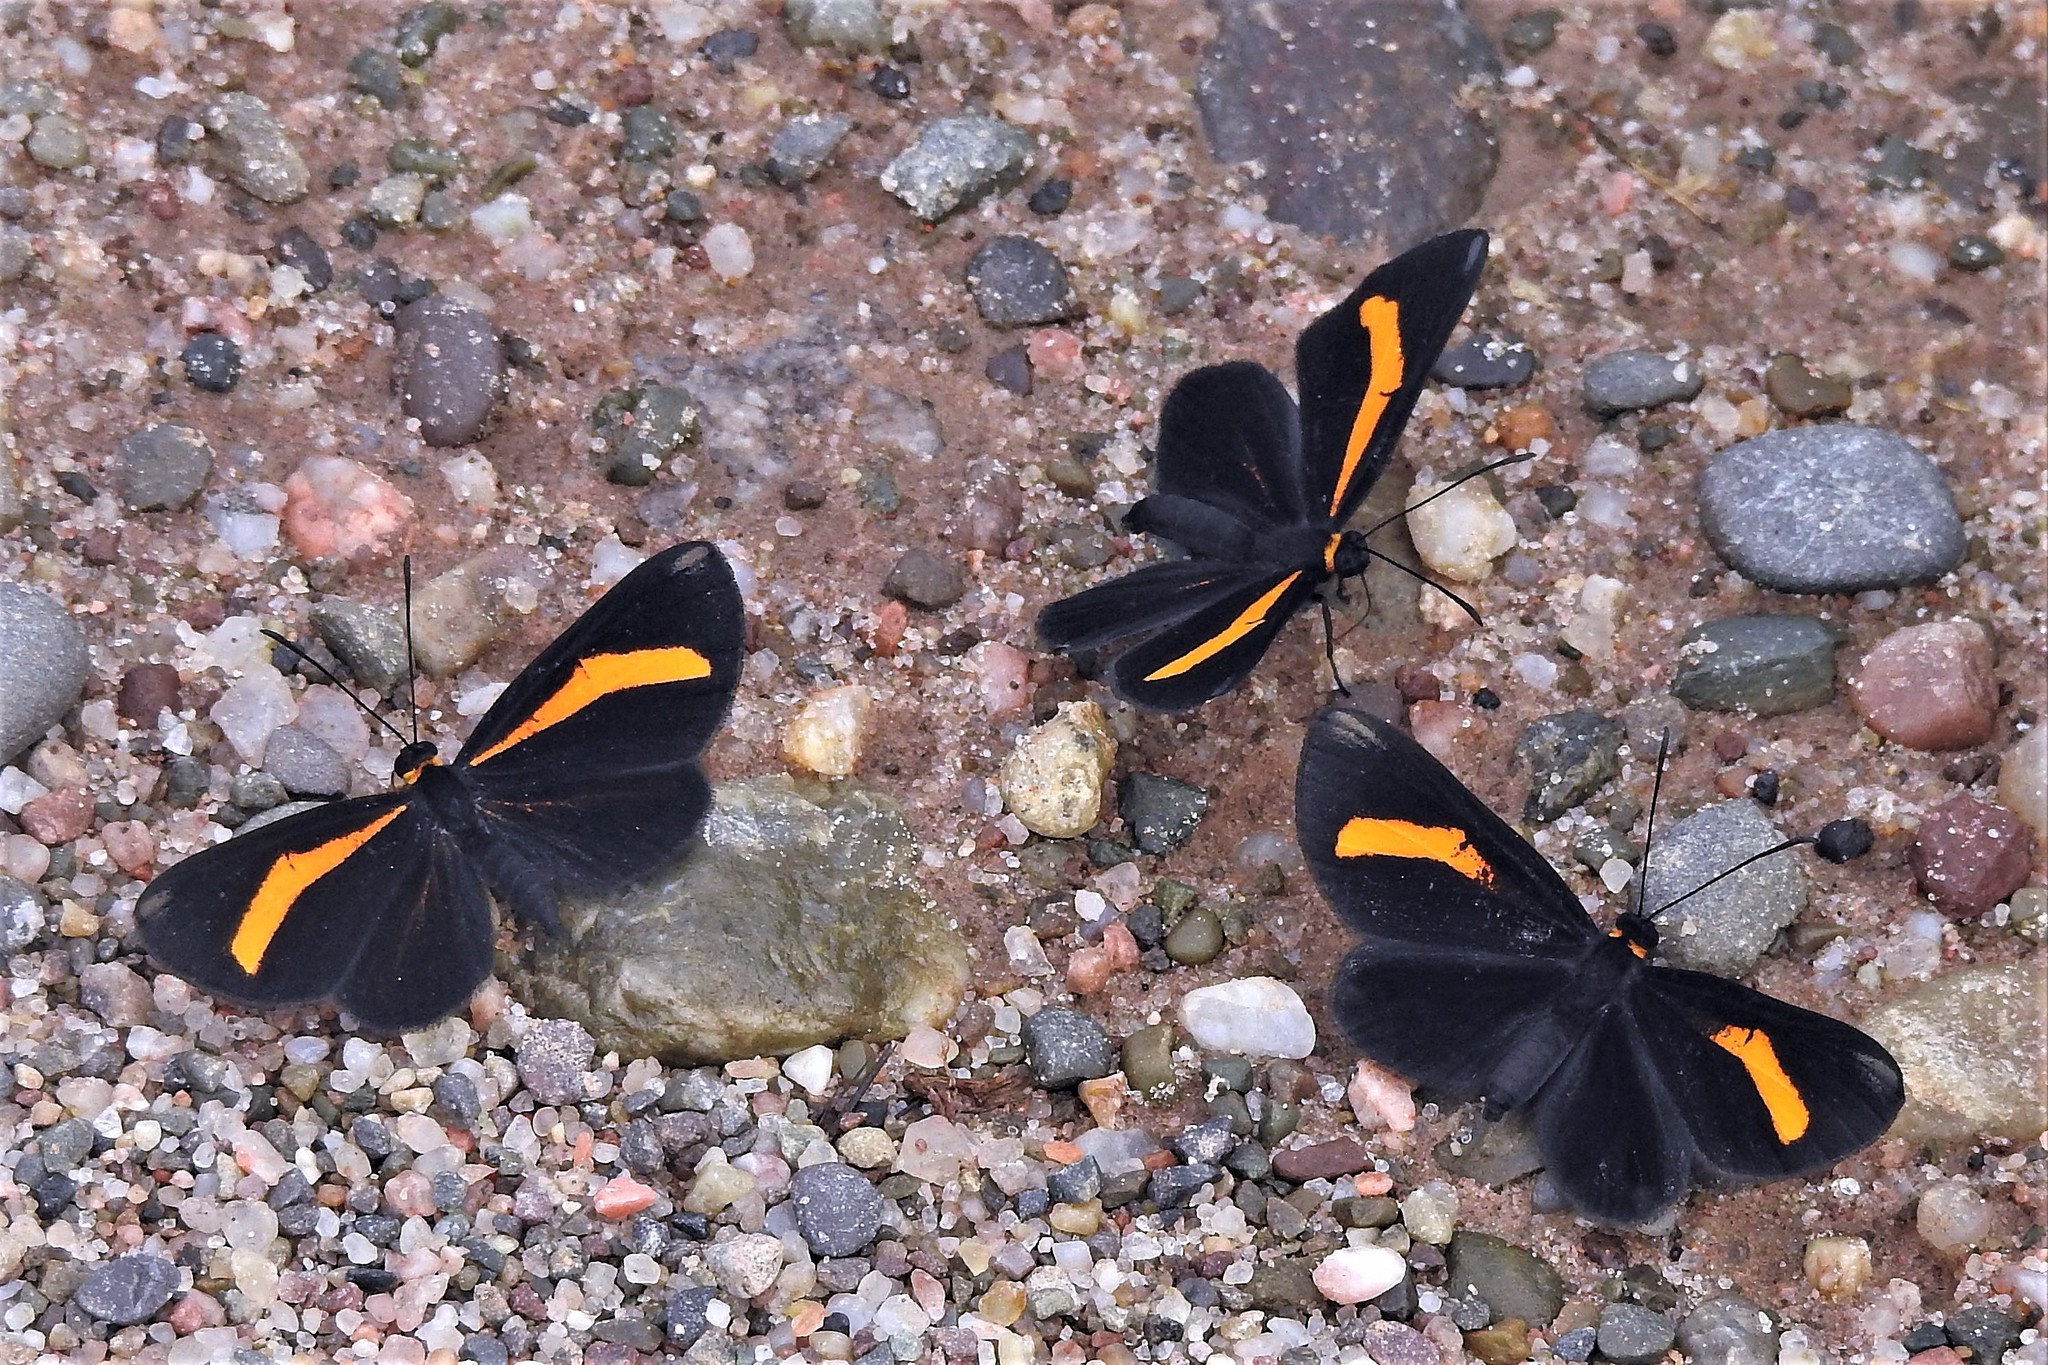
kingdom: Animalia
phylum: Arthropoda
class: Insecta
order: Lepidoptera
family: Riodinidae
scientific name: Riodinidae
